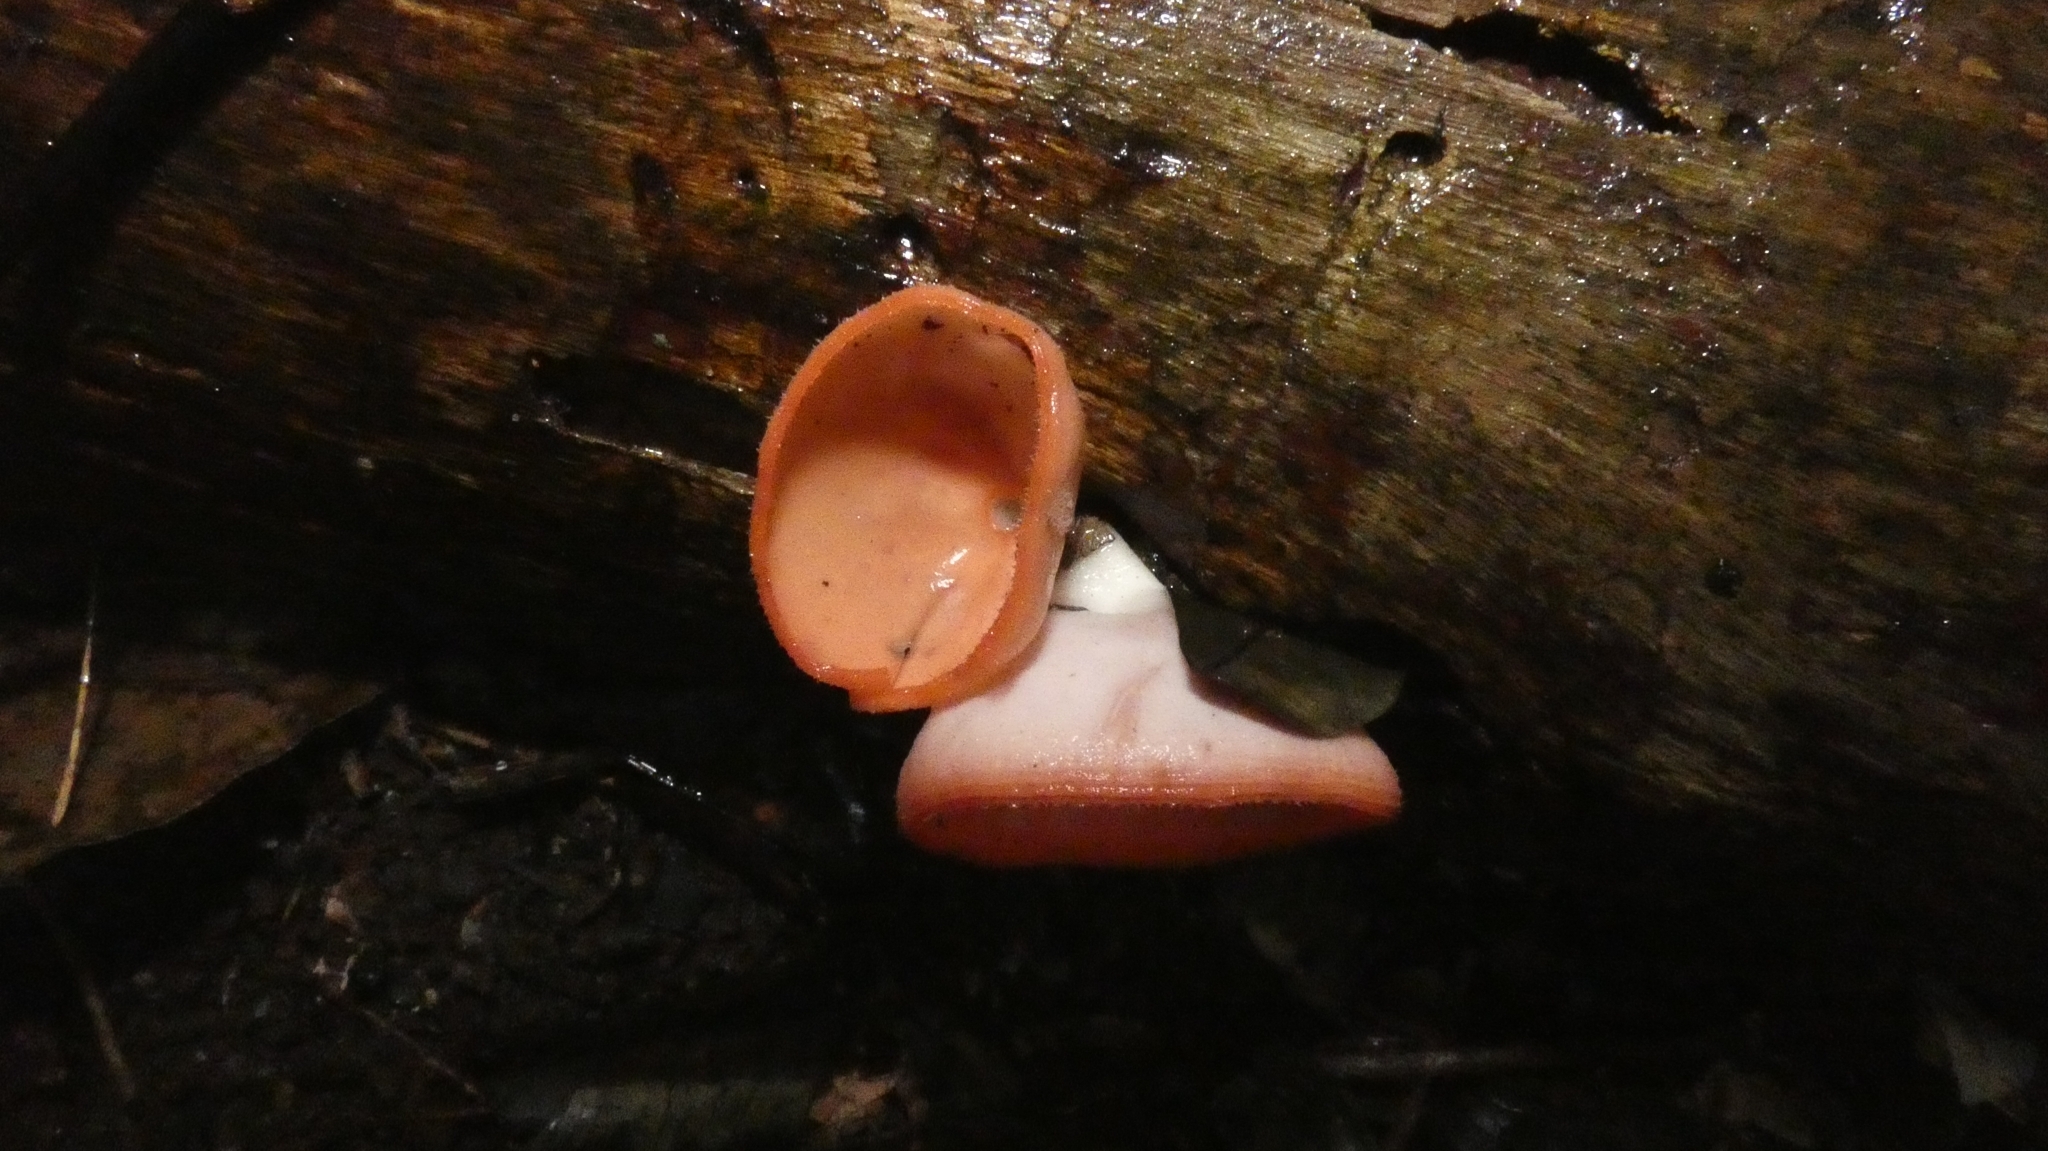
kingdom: Fungi
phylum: Ascomycota
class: Pezizomycetes
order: Pezizales
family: Sarcoscyphaceae
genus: Cookeina
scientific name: Cookeina speciosa
